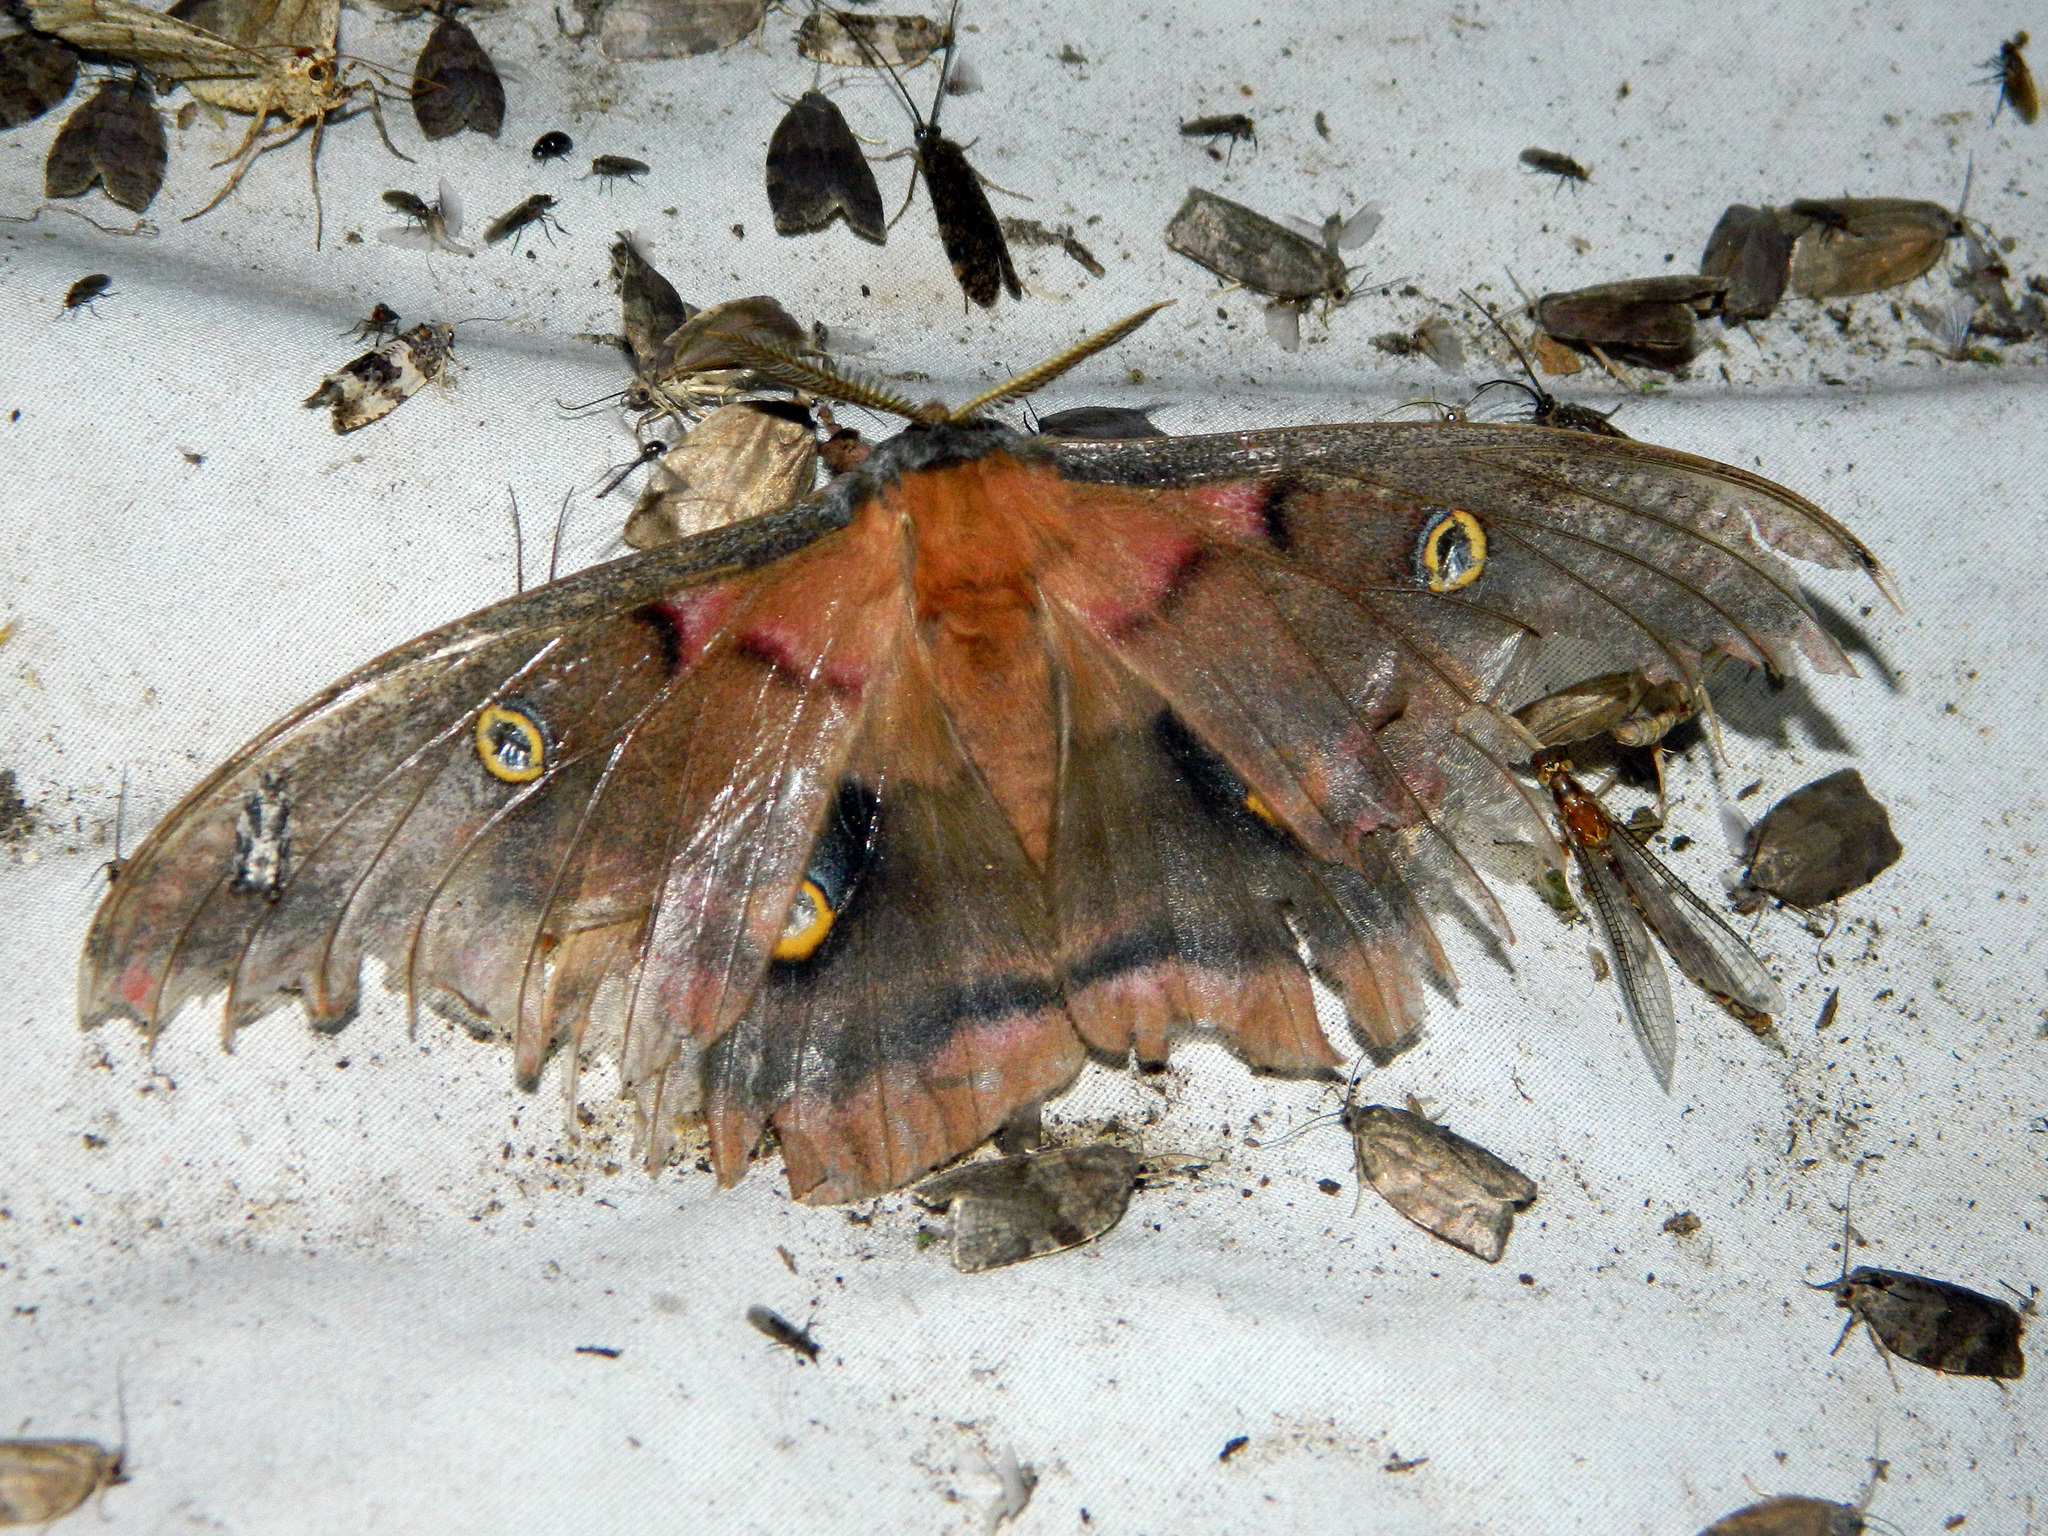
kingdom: Animalia
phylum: Arthropoda
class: Insecta
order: Lepidoptera
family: Saturniidae
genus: Antheraea
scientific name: Antheraea polyphemus
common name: Polyphemus moth
